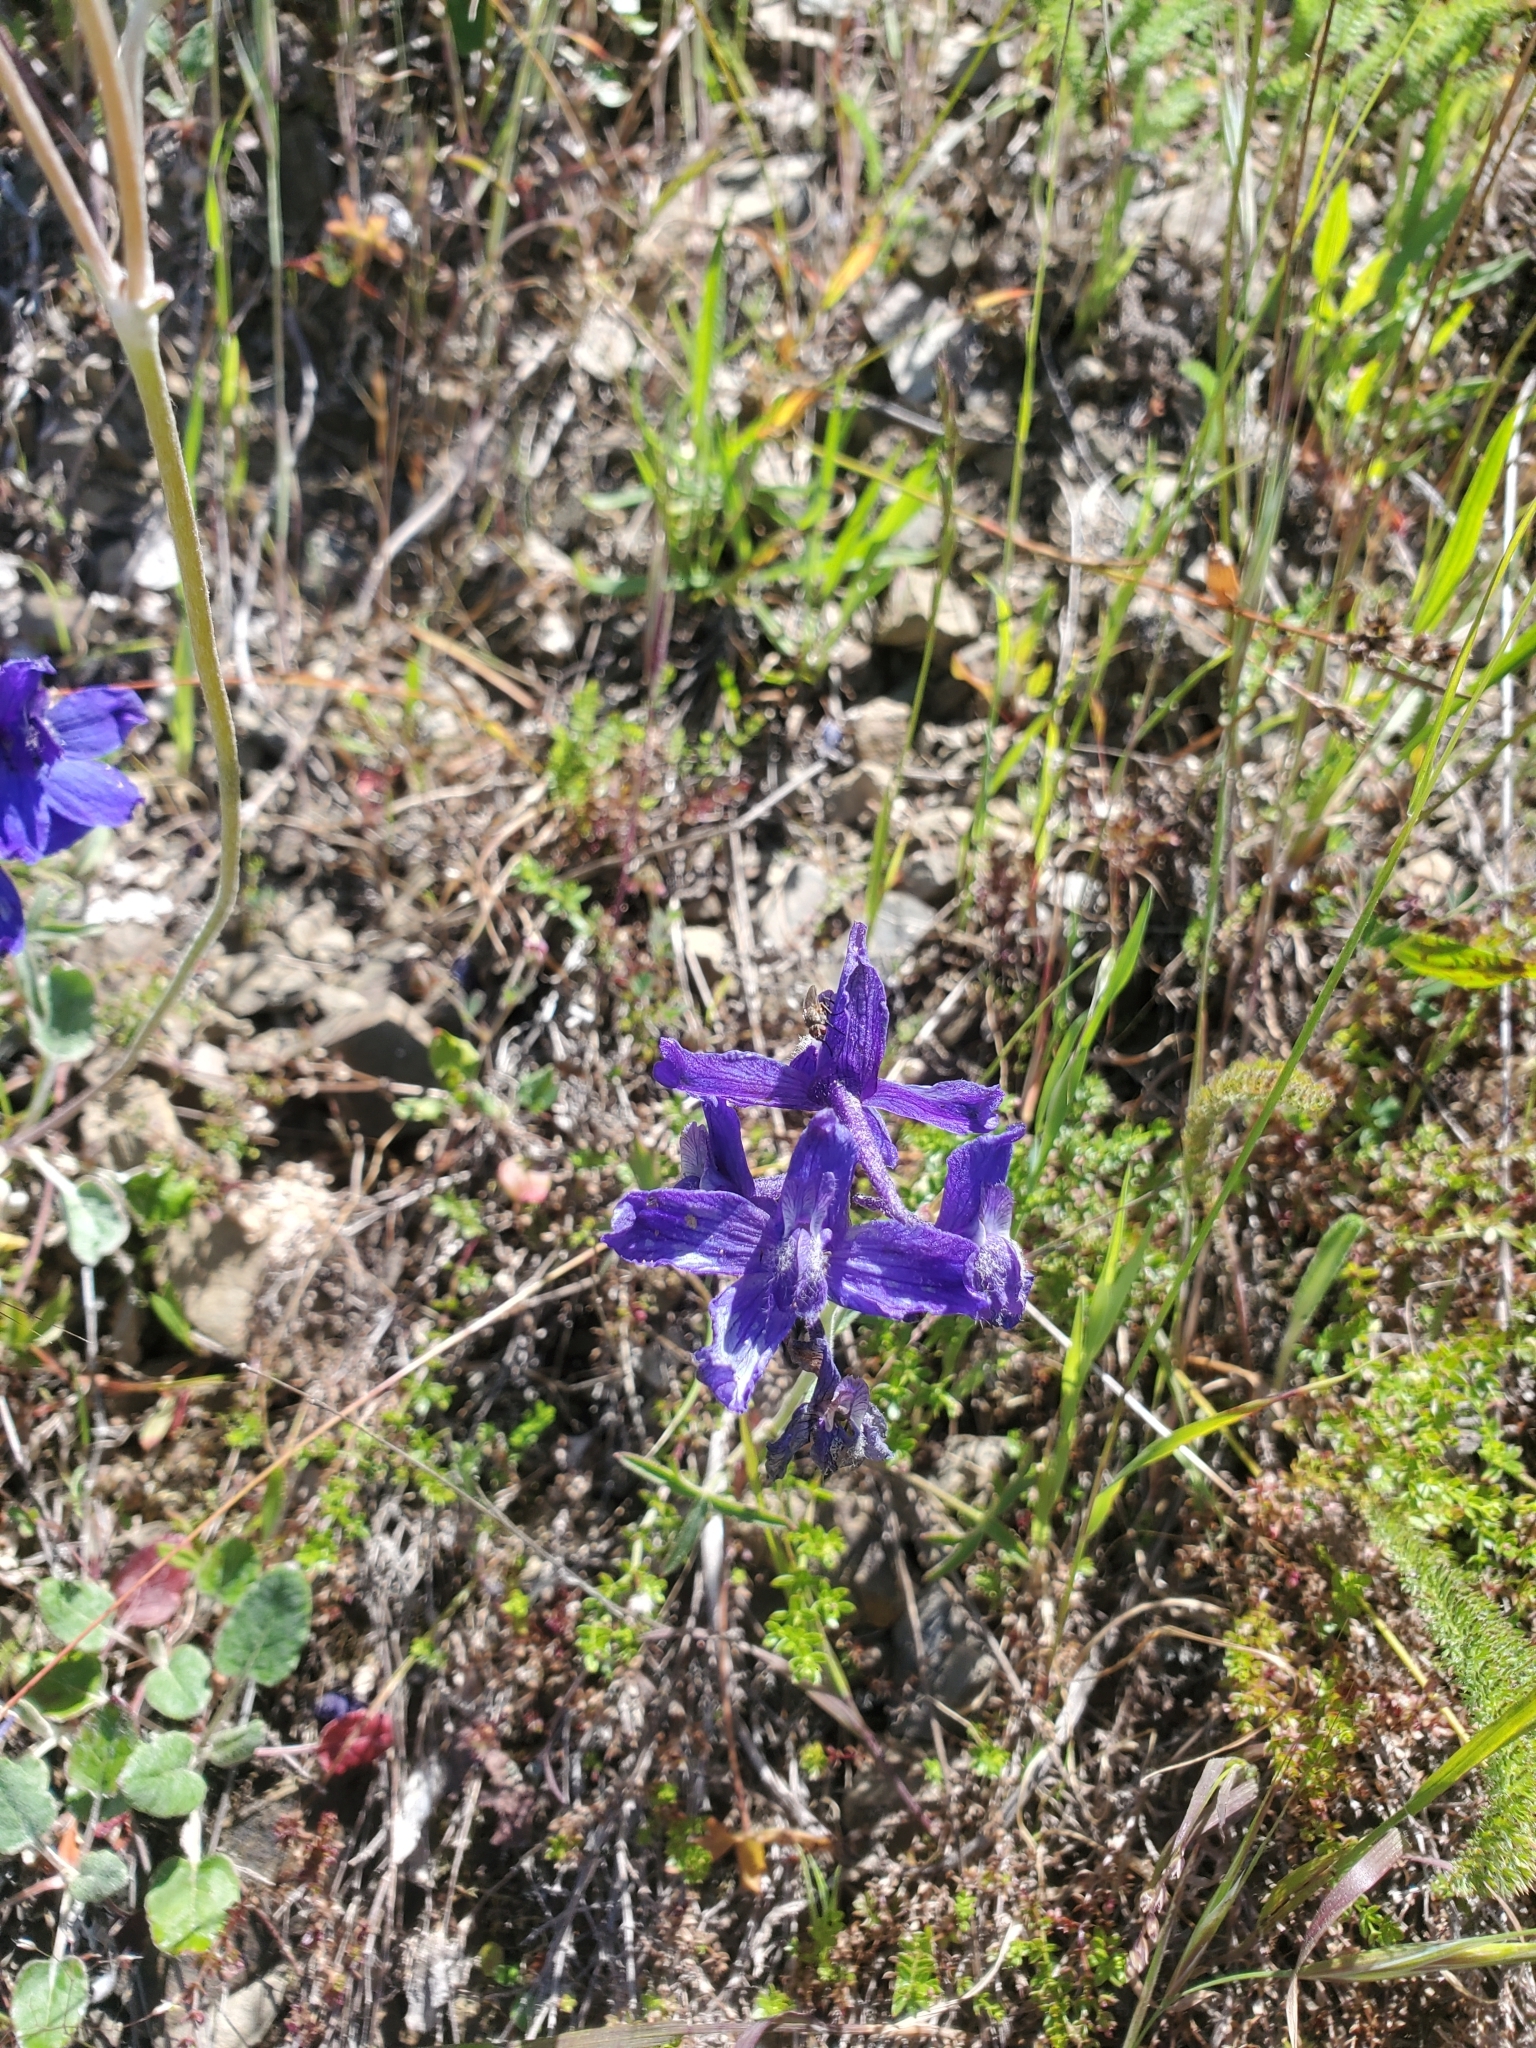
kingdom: Plantae
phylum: Tracheophyta
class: Magnoliopsida
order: Ranunculales
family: Ranunculaceae
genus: Delphinium
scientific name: Delphinium decorum
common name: Coast larkspur
